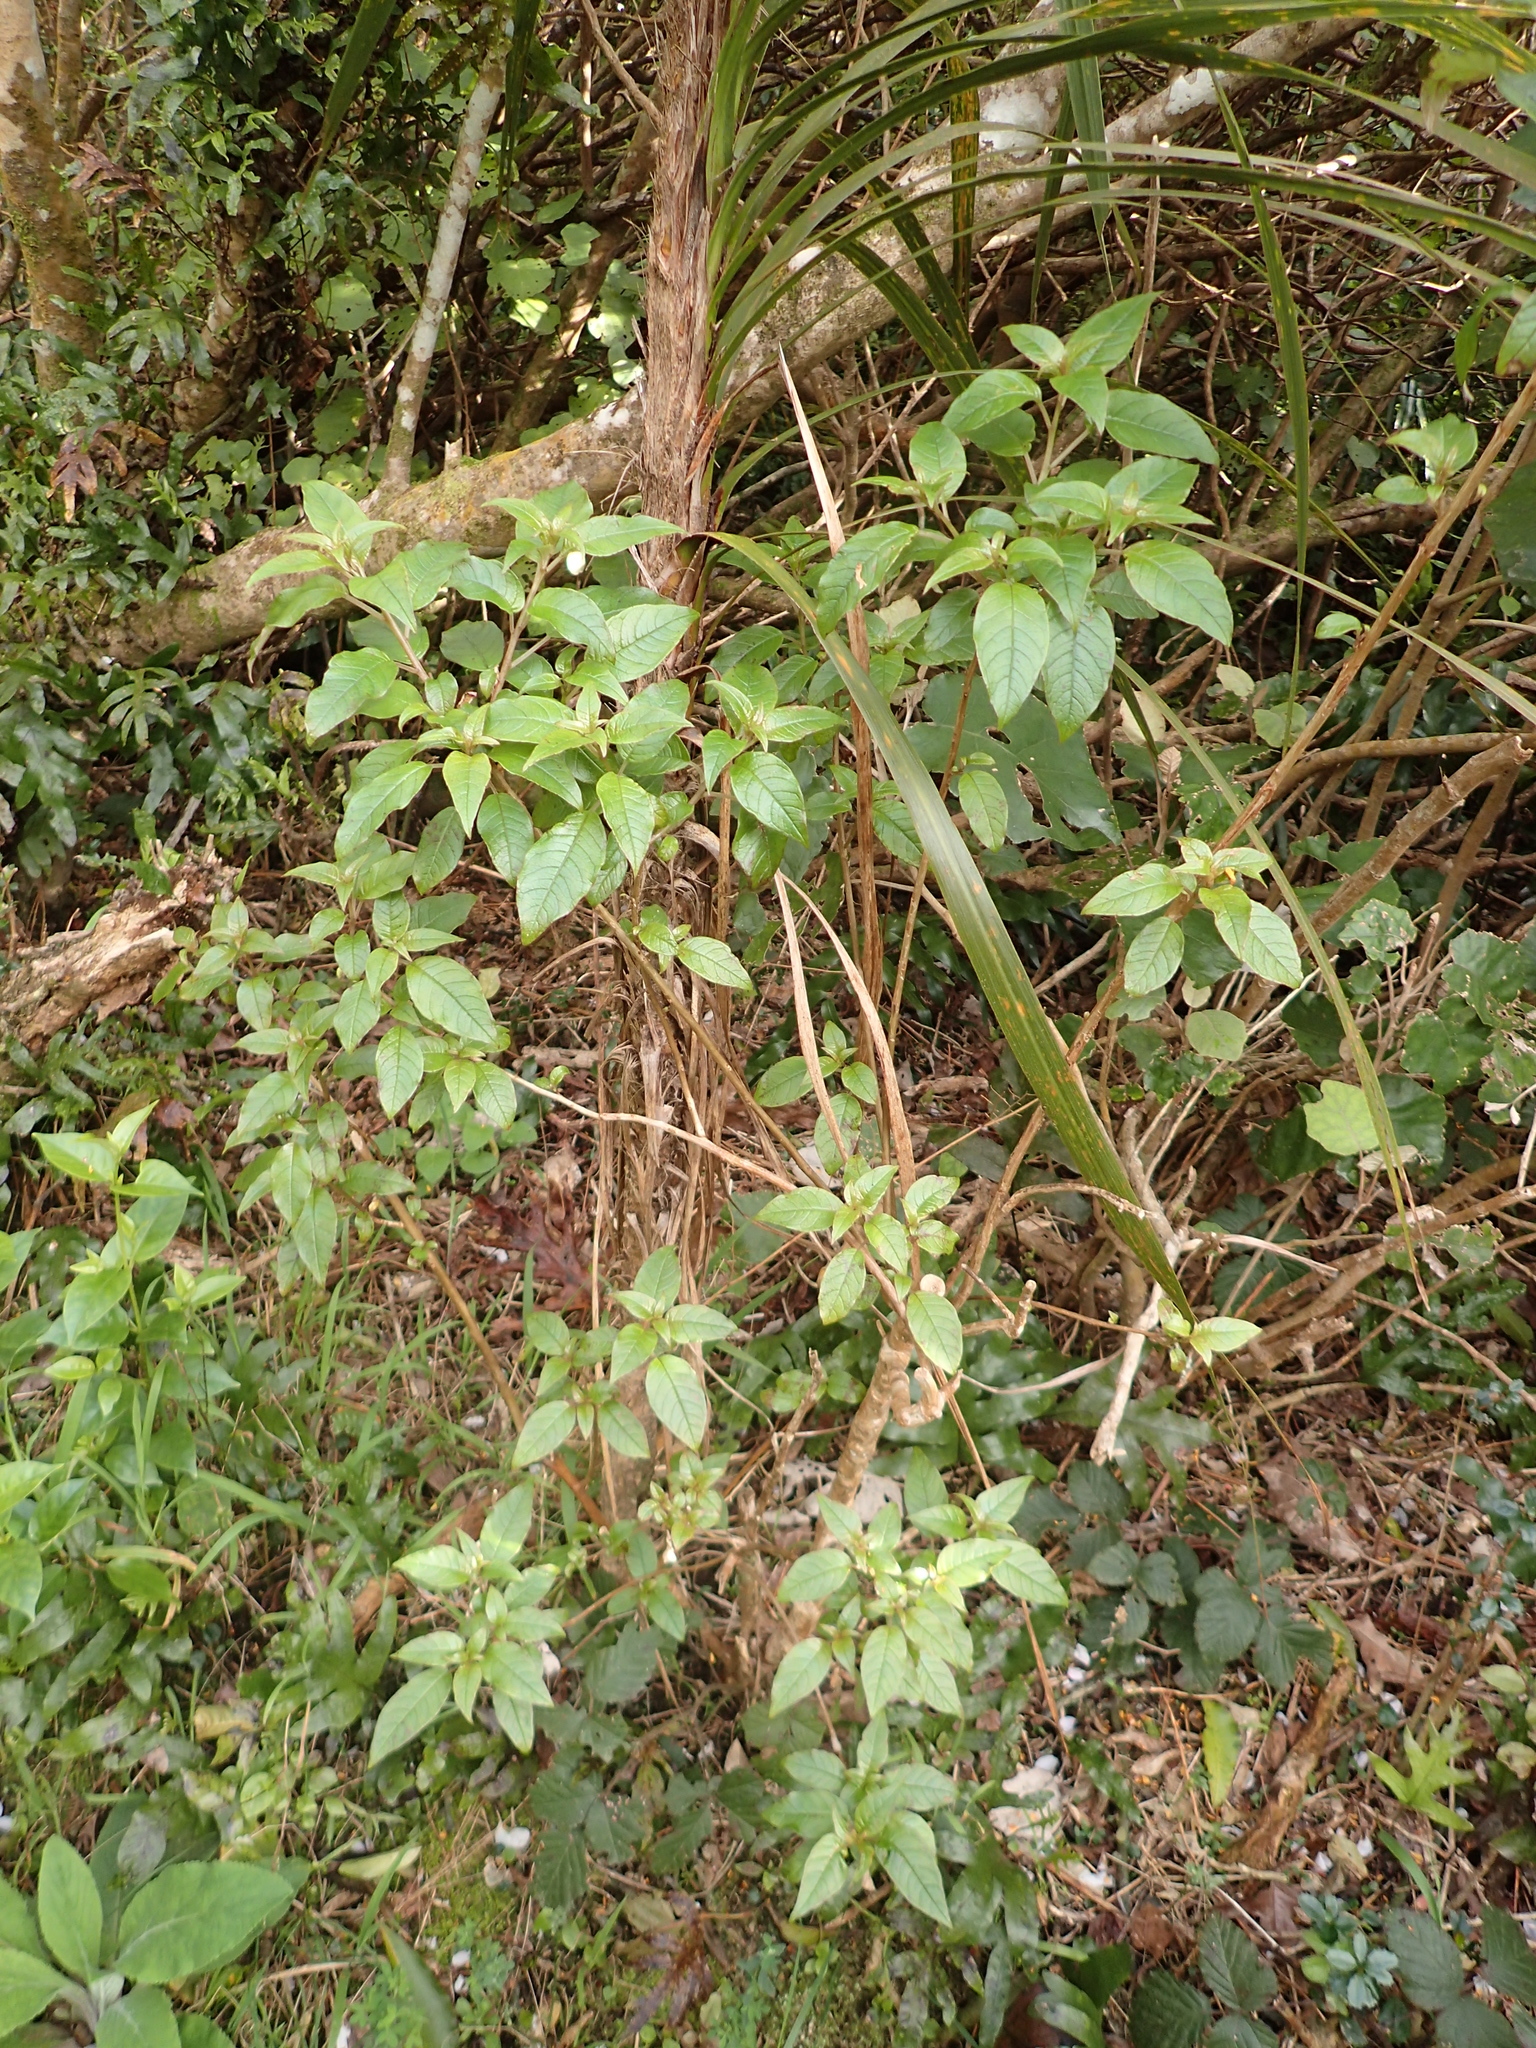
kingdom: Plantae
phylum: Tracheophyta
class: Magnoliopsida
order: Myrtales
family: Onagraceae
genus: Fuchsia
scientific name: Fuchsia excorticata
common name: Tree fuchsia
